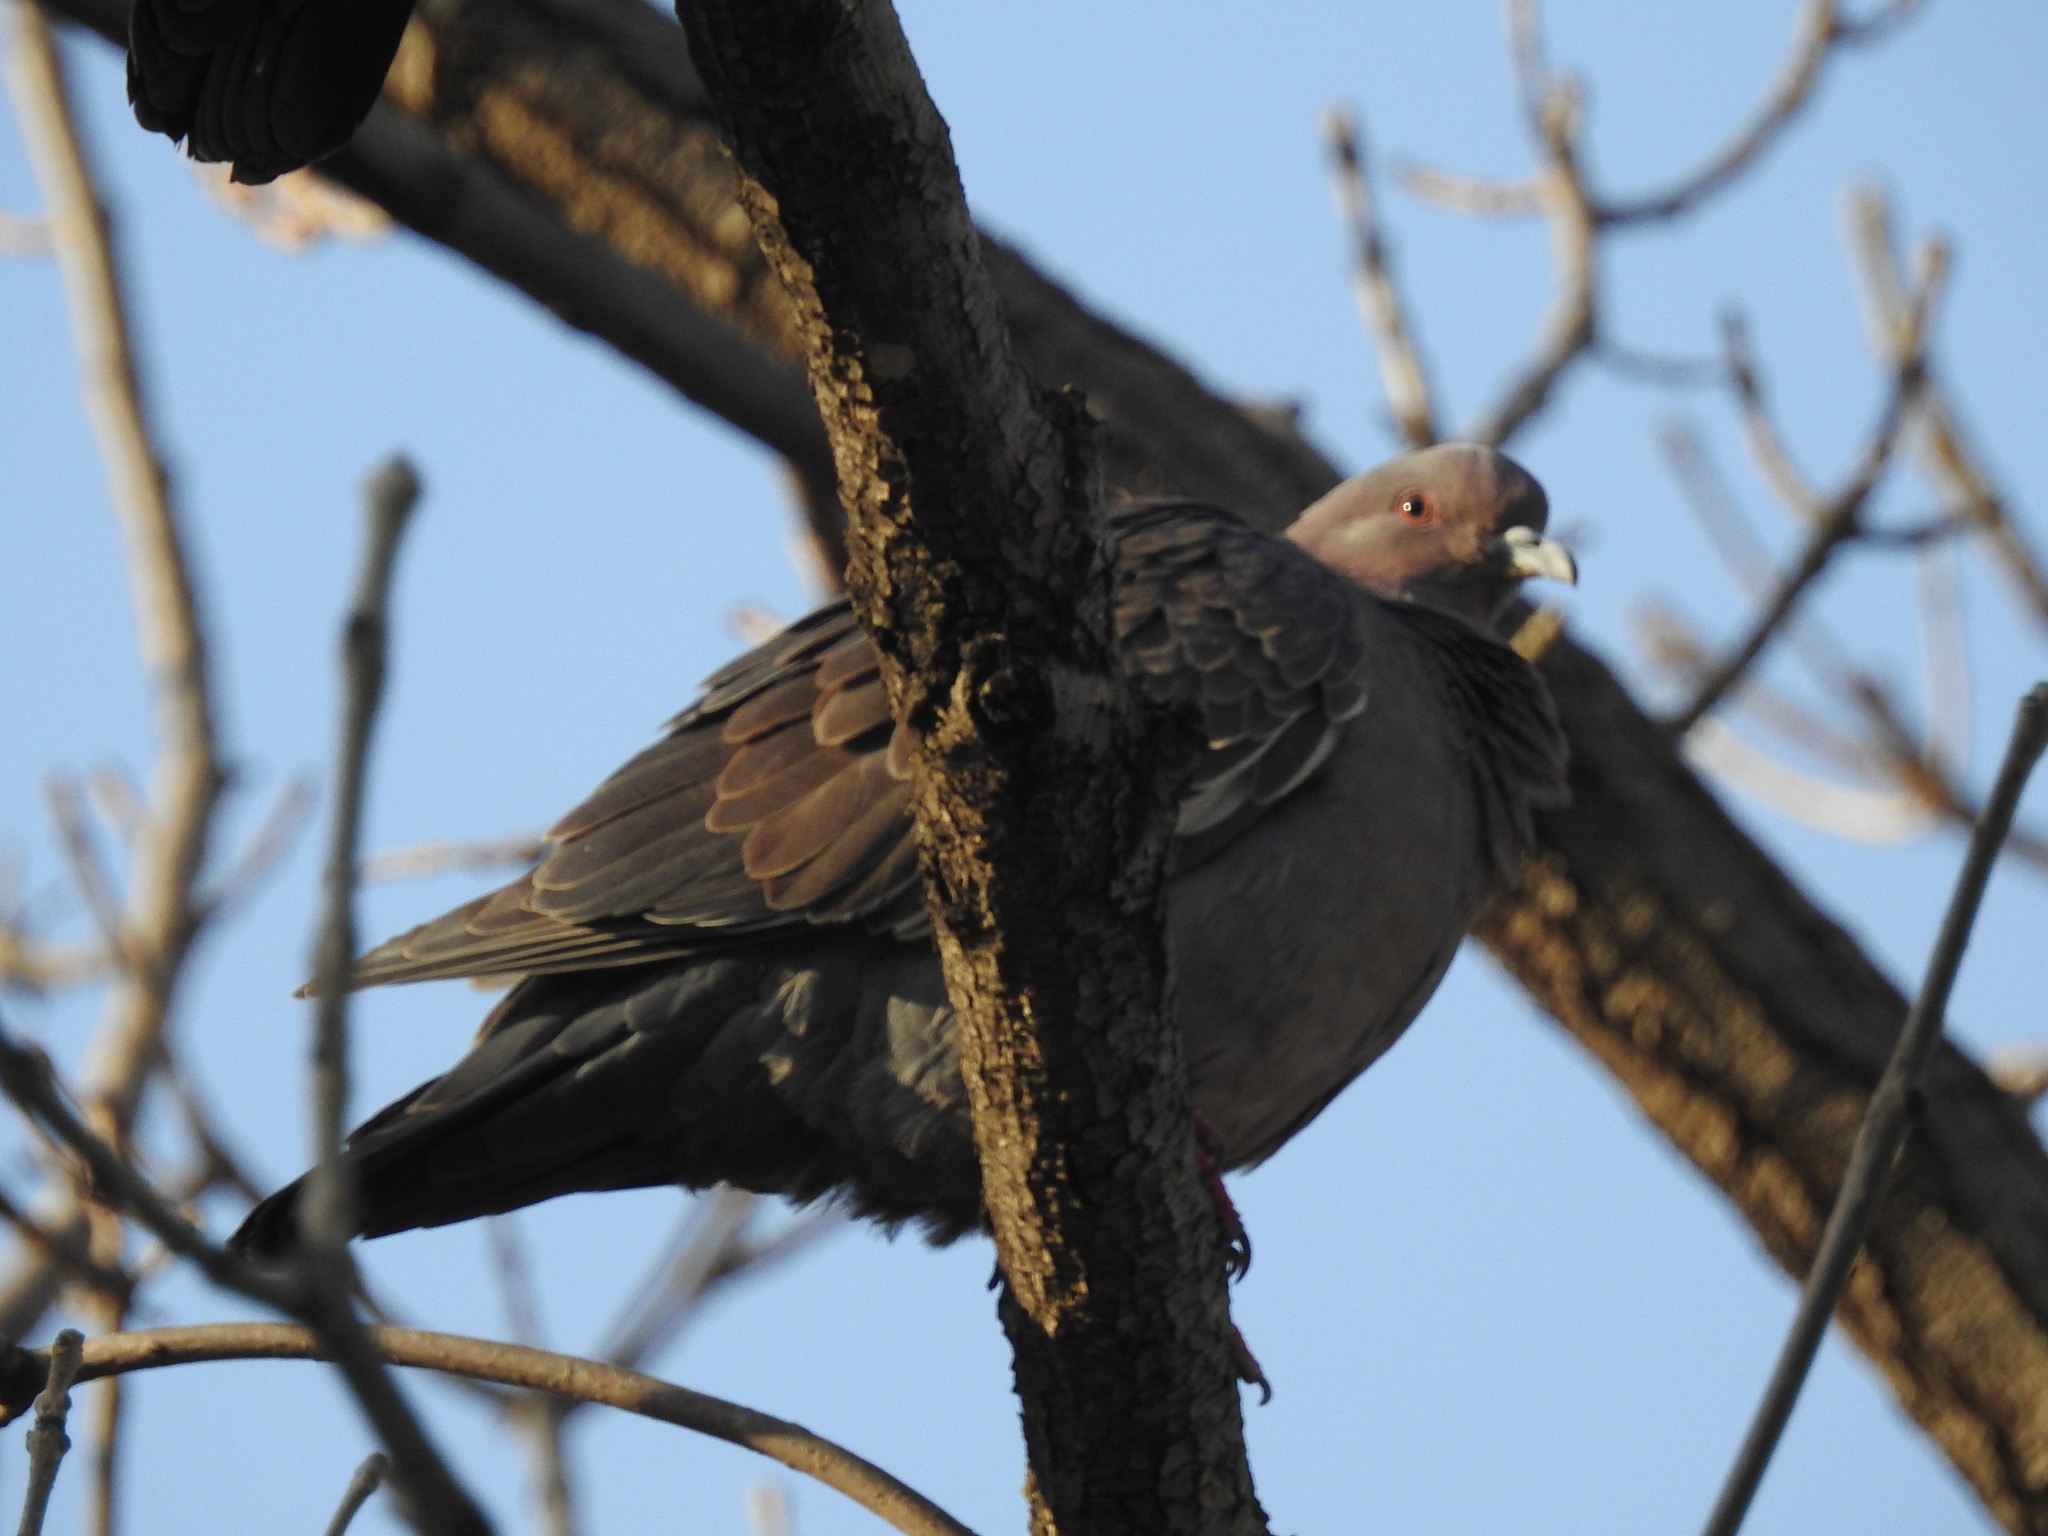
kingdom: Animalia
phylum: Chordata
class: Aves
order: Columbiformes
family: Columbidae
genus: Patagioenas
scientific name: Patagioenas picazuro
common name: Picazuro pigeon
